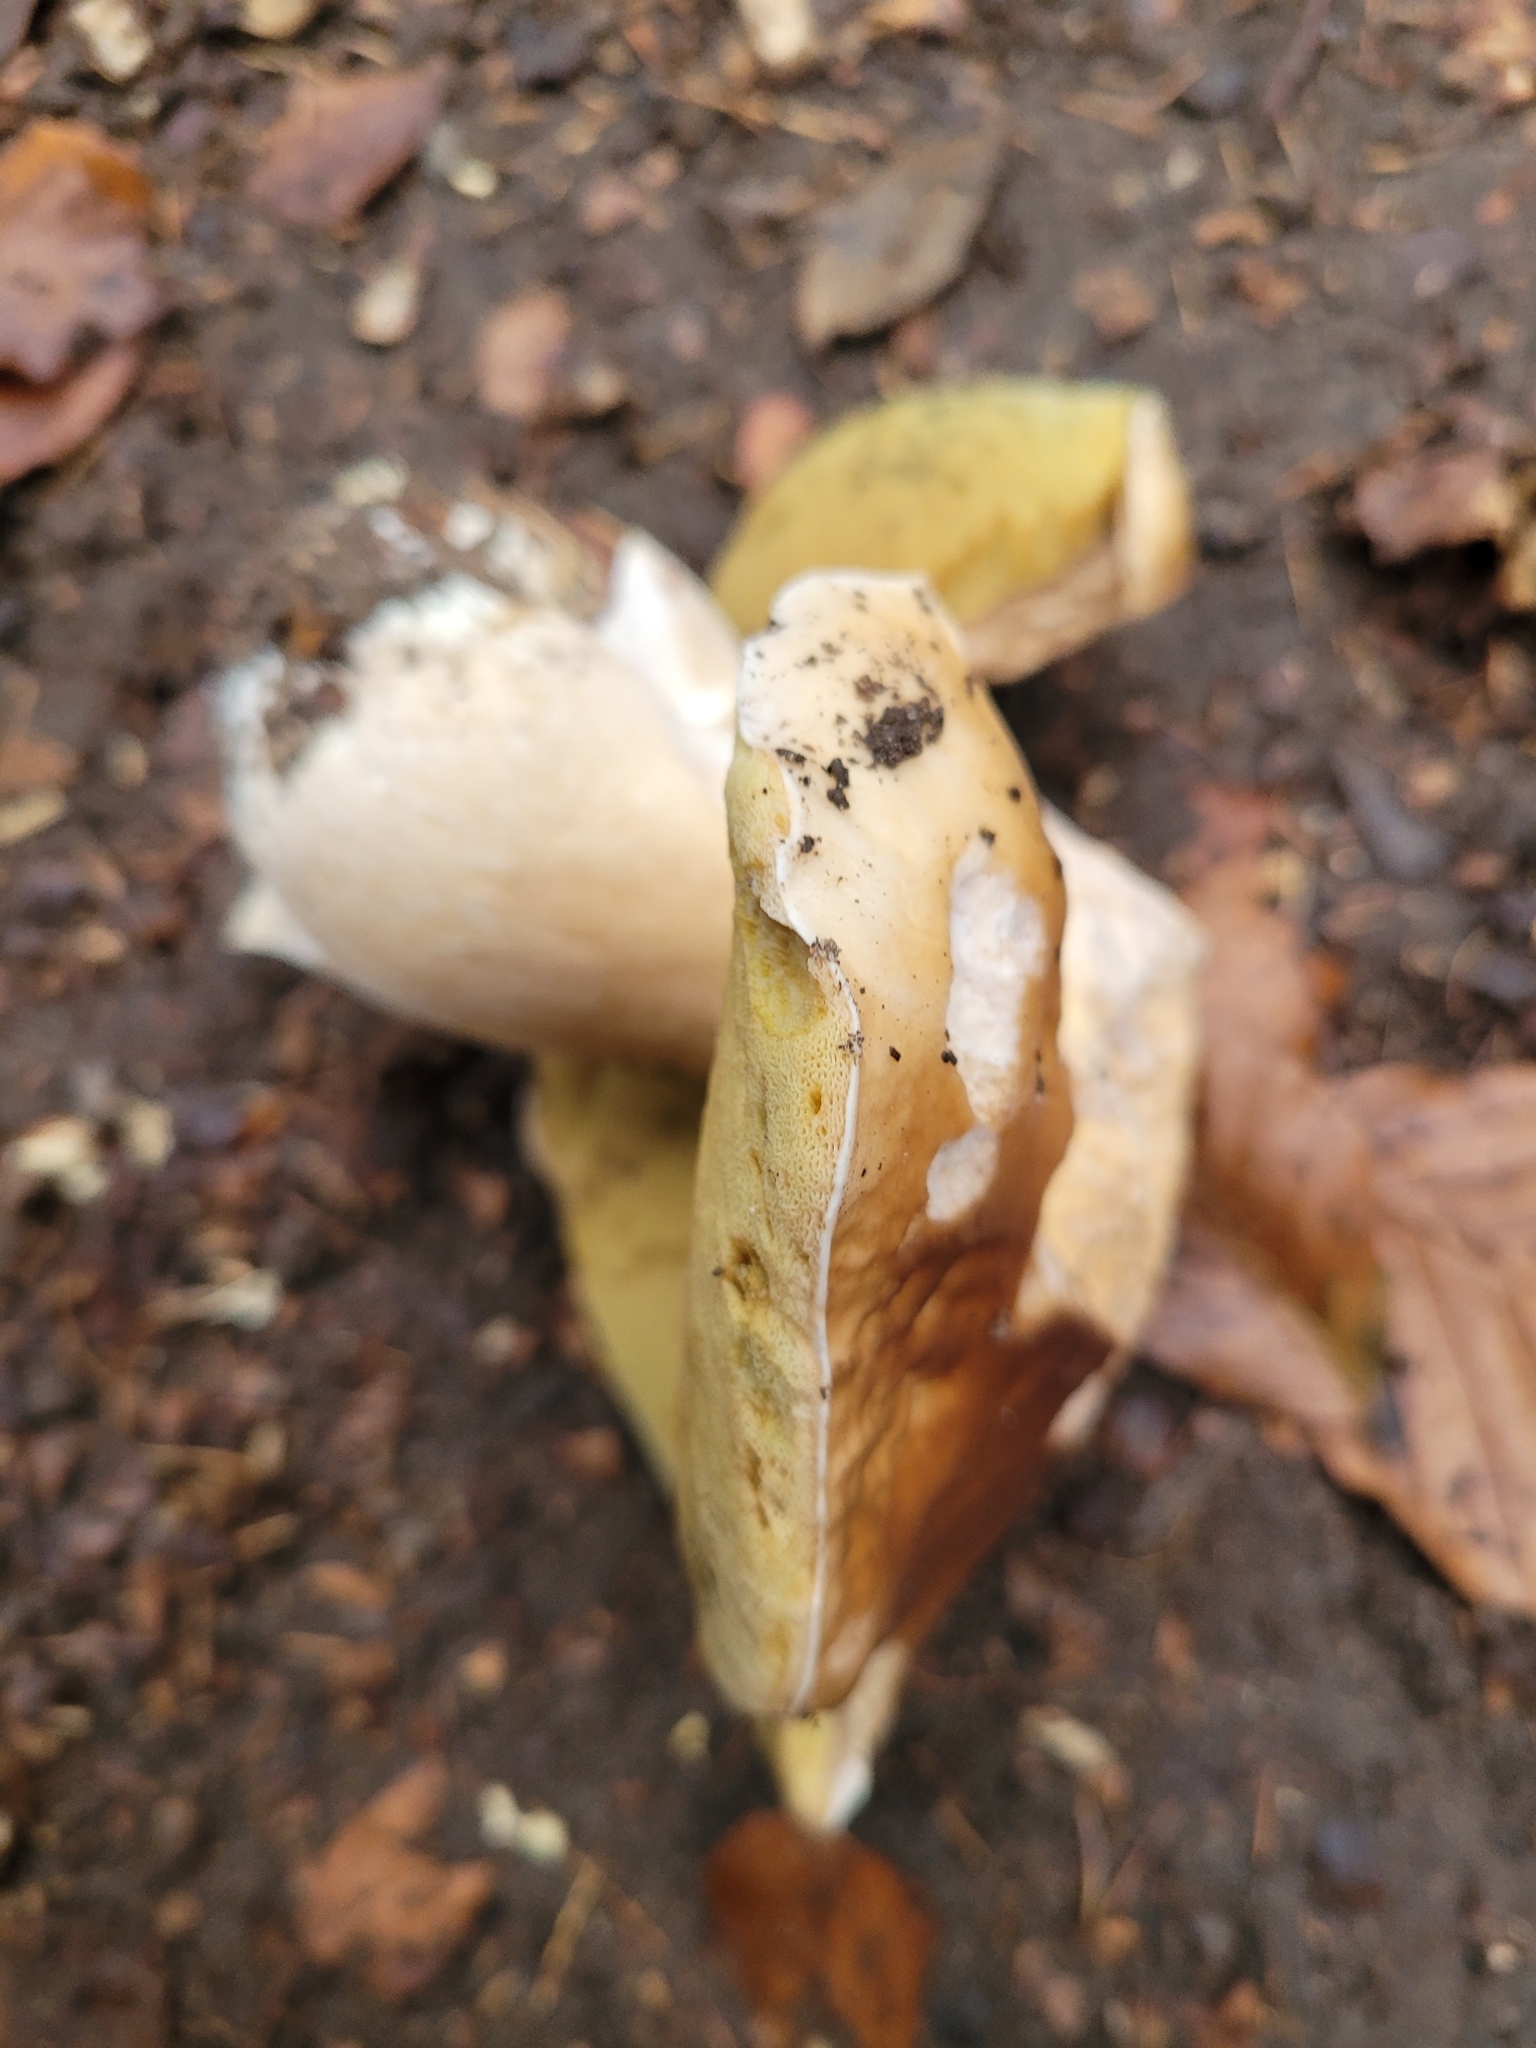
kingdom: Fungi
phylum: Basidiomycota
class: Agaricomycetes
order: Boletales
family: Boletaceae
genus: Boletus
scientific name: Boletus edulis
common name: Cep
